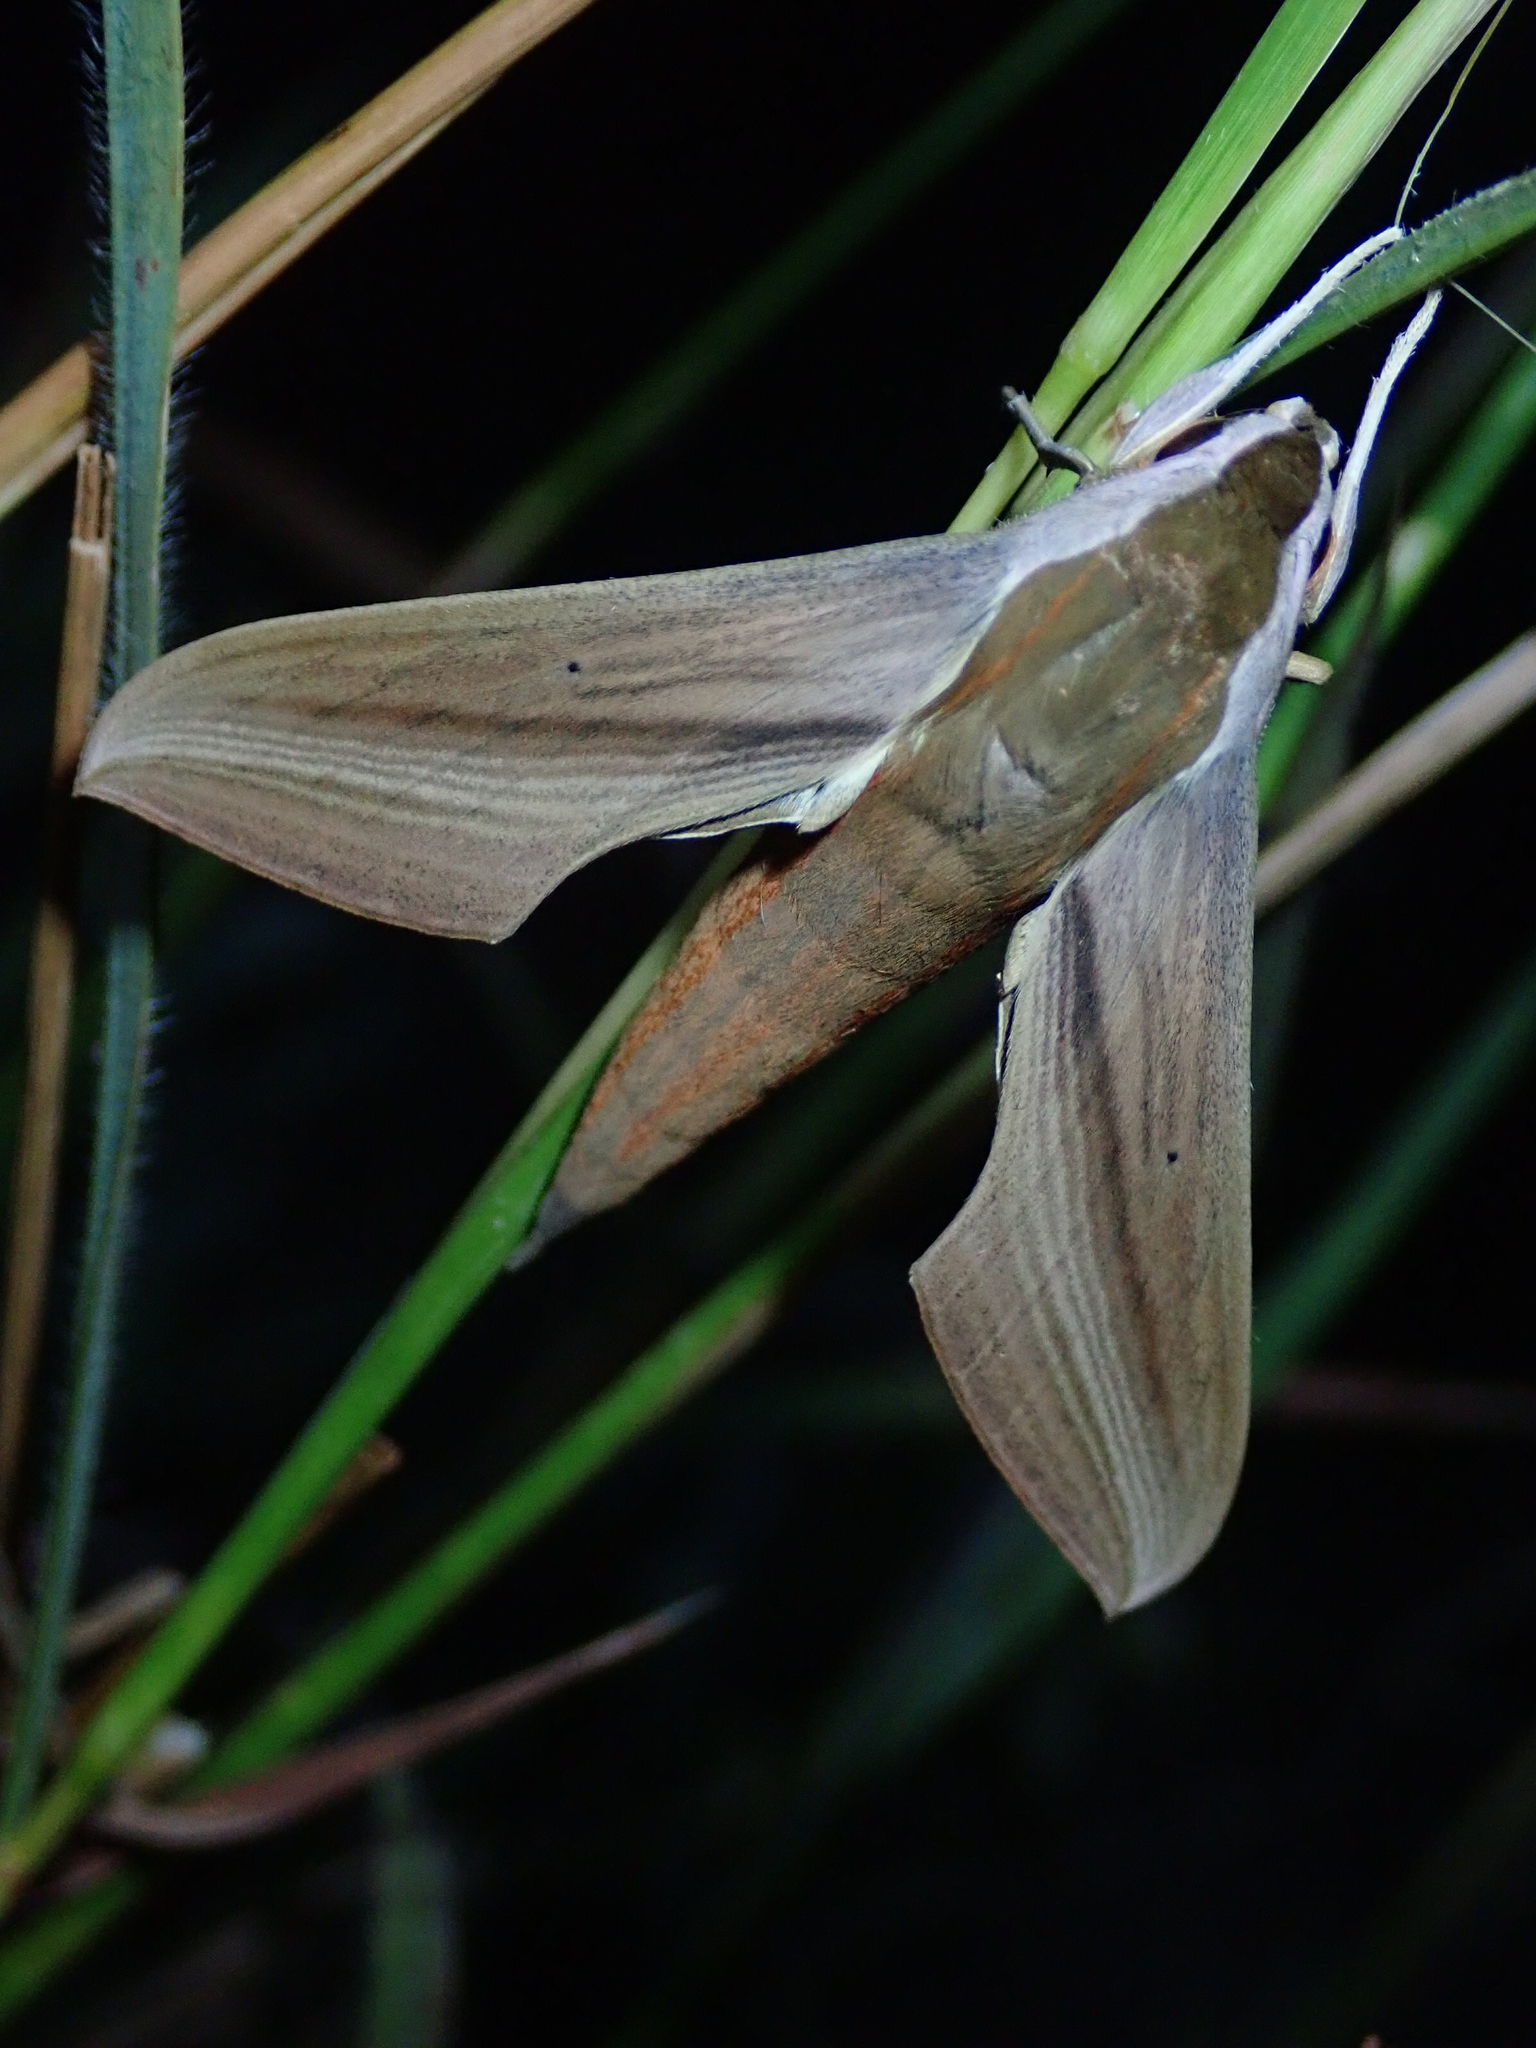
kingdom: Animalia
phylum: Arthropoda
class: Insecta
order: Lepidoptera
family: Sphingidae
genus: Xylophanes
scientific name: Xylophanes tersa
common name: Tersa sphinx
